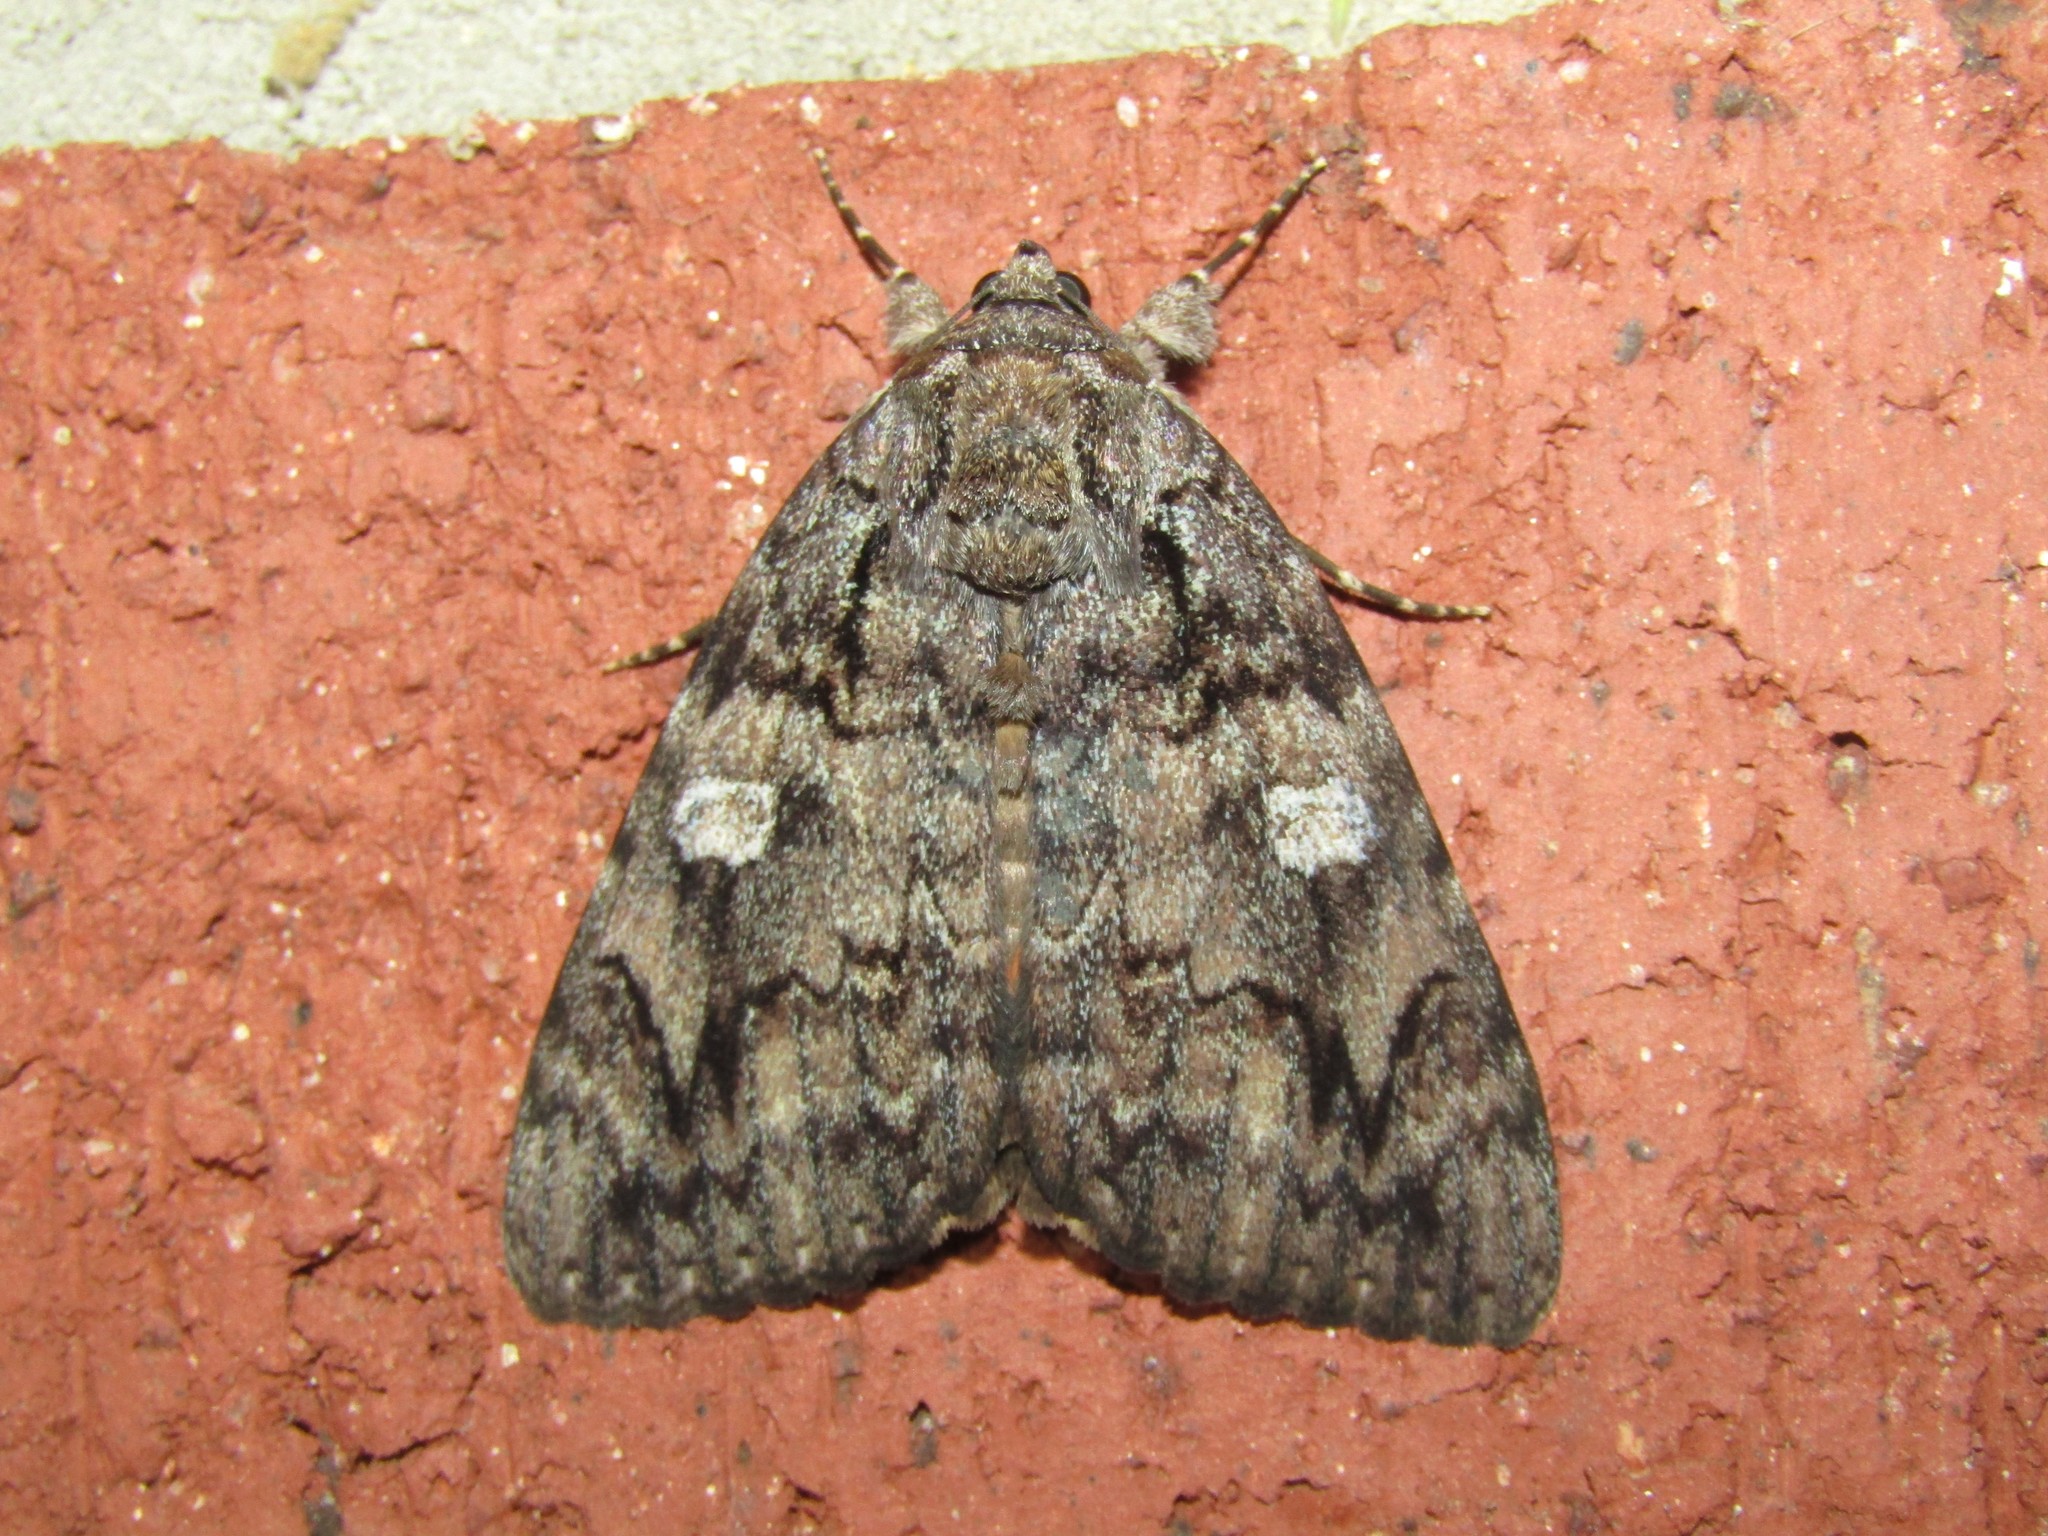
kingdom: Animalia
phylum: Arthropoda
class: Insecta
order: Lepidoptera
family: Erebidae
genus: Catocala
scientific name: Catocala ilia
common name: Ilia underwing
